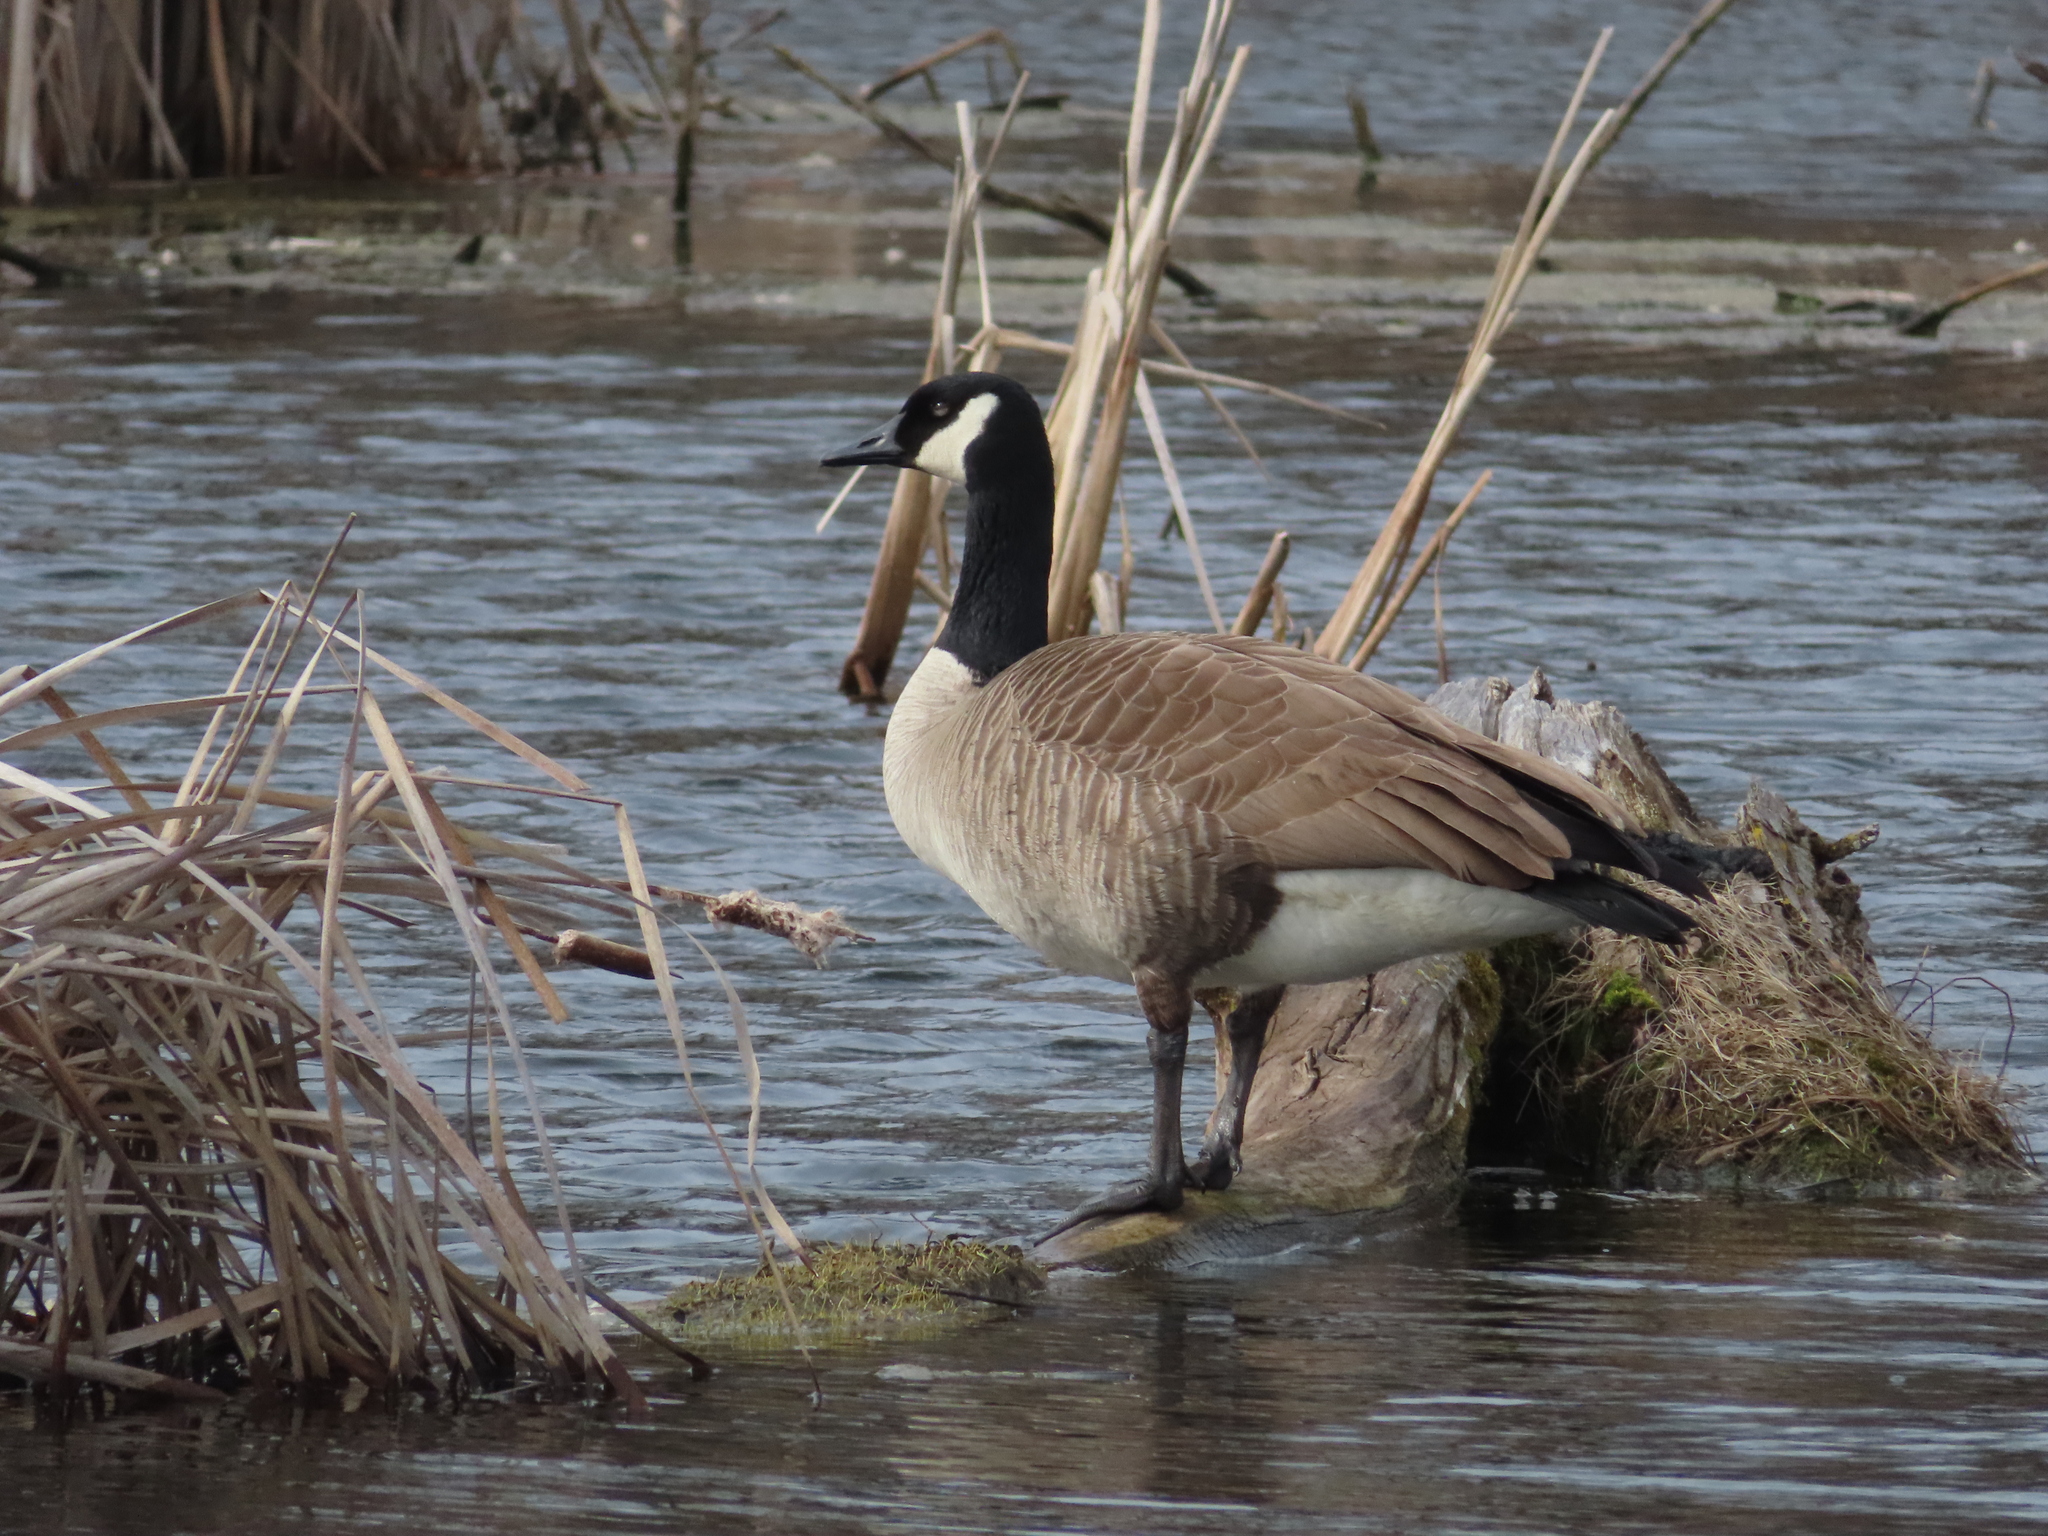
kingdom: Animalia
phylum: Chordata
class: Aves
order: Anseriformes
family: Anatidae
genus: Branta
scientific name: Branta canadensis
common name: Canada goose
